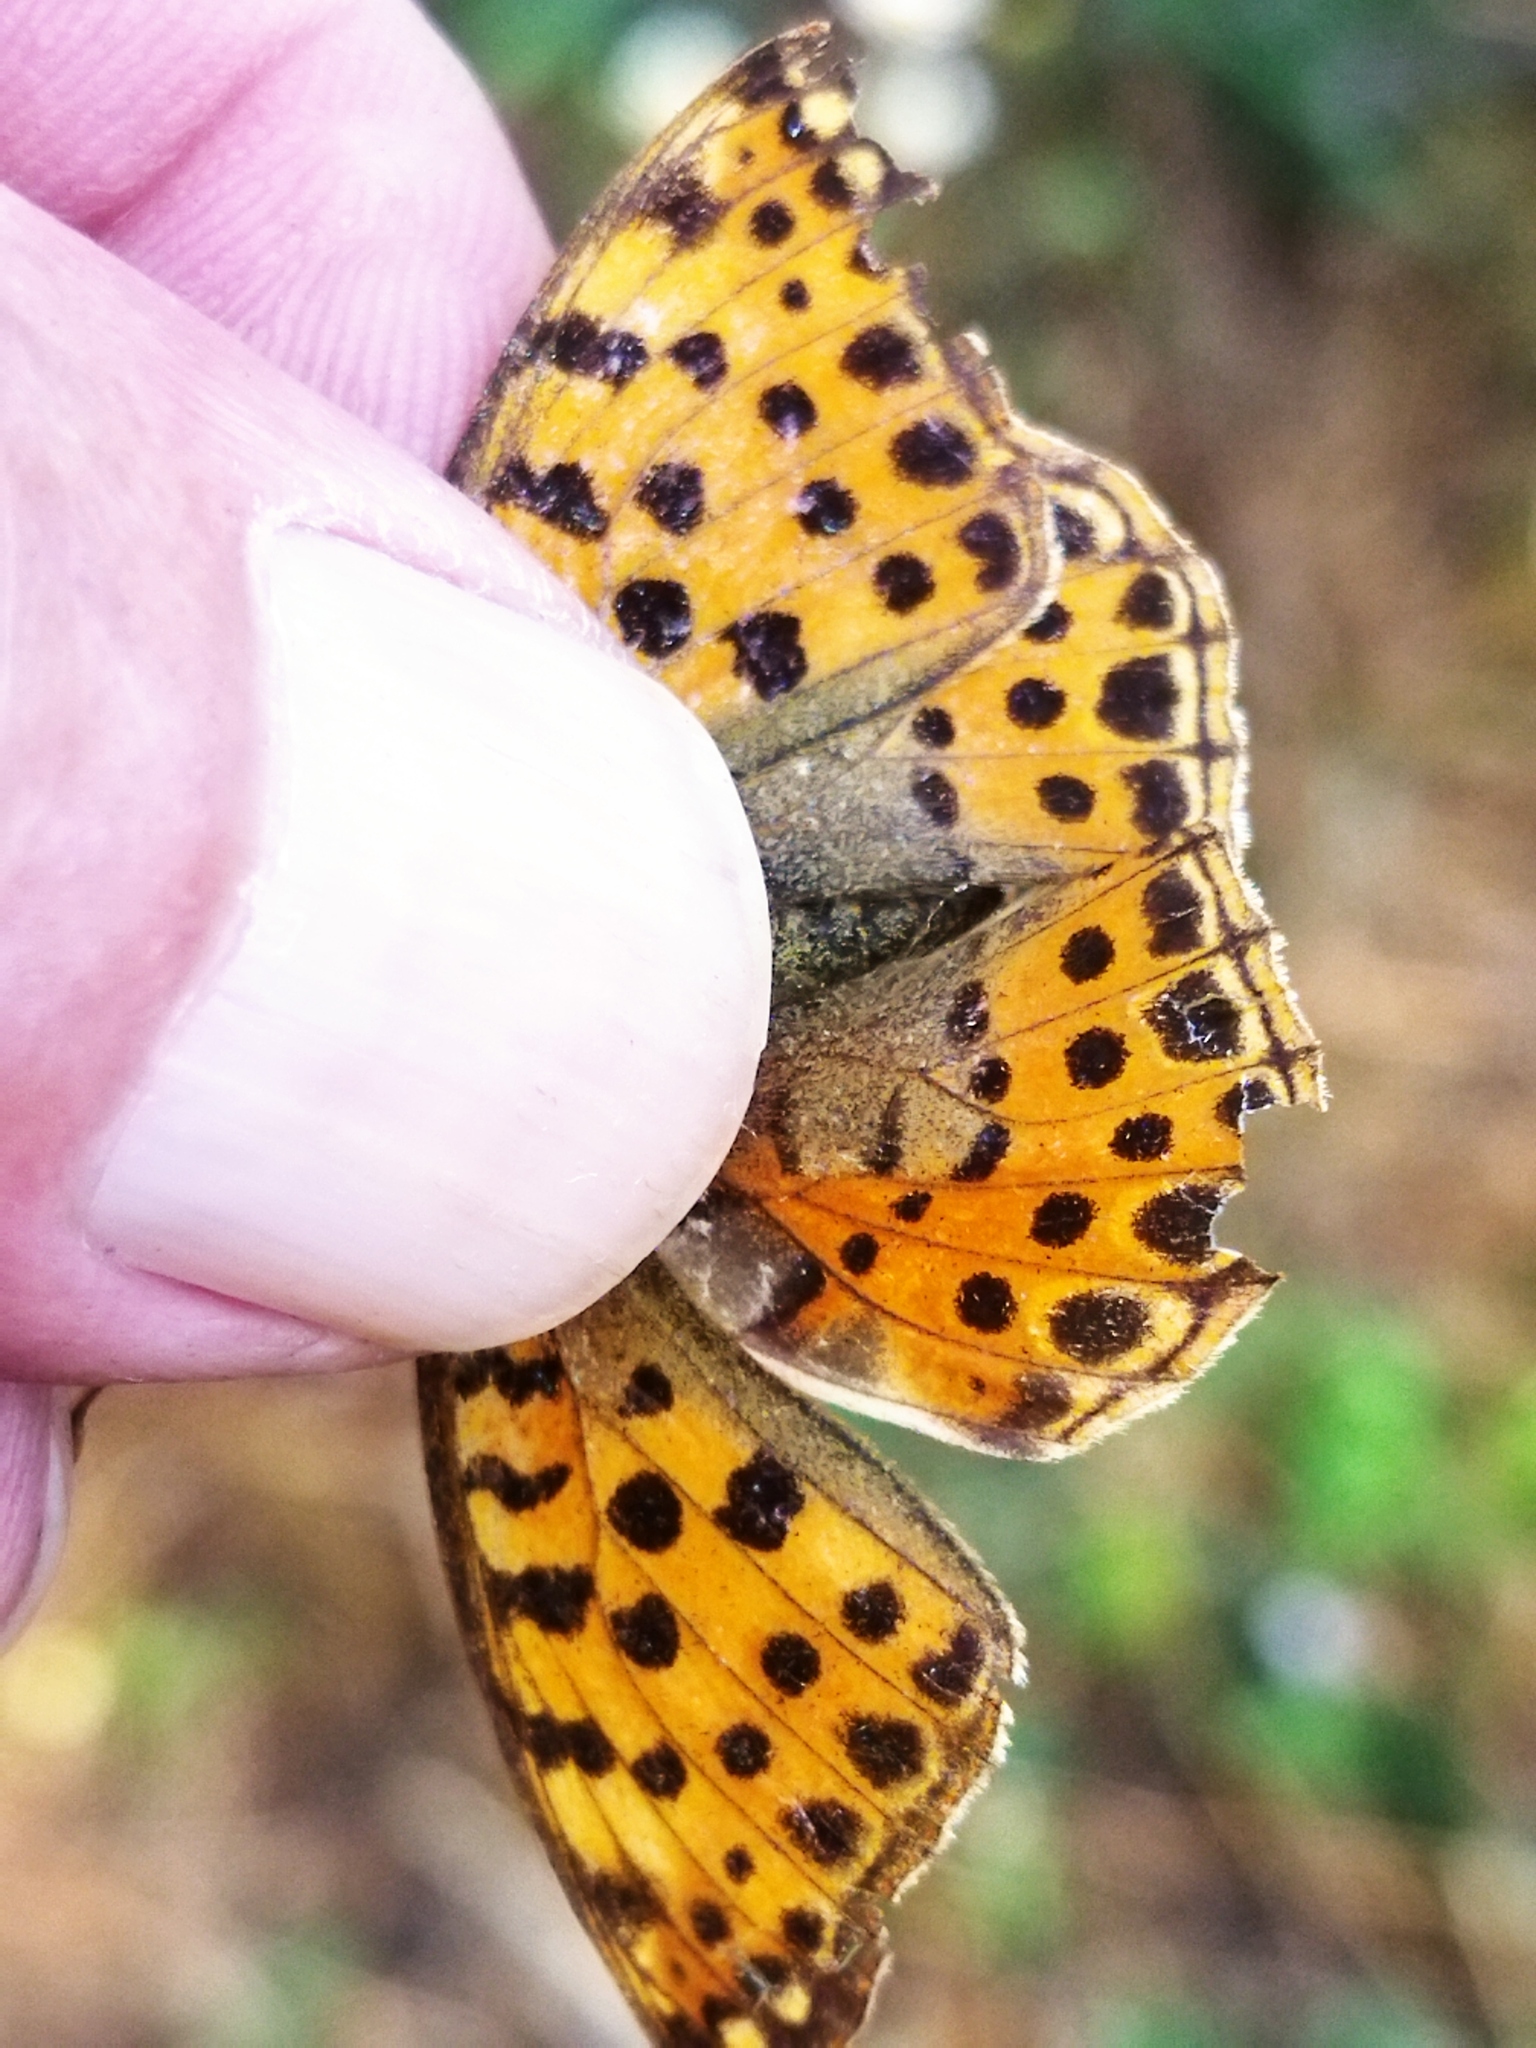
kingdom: Animalia
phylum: Arthropoda
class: Insecta
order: Lepidoptera
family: Nymphalidae
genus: Issoria
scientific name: Issoria lathonia
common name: Queen of spain fritillary
